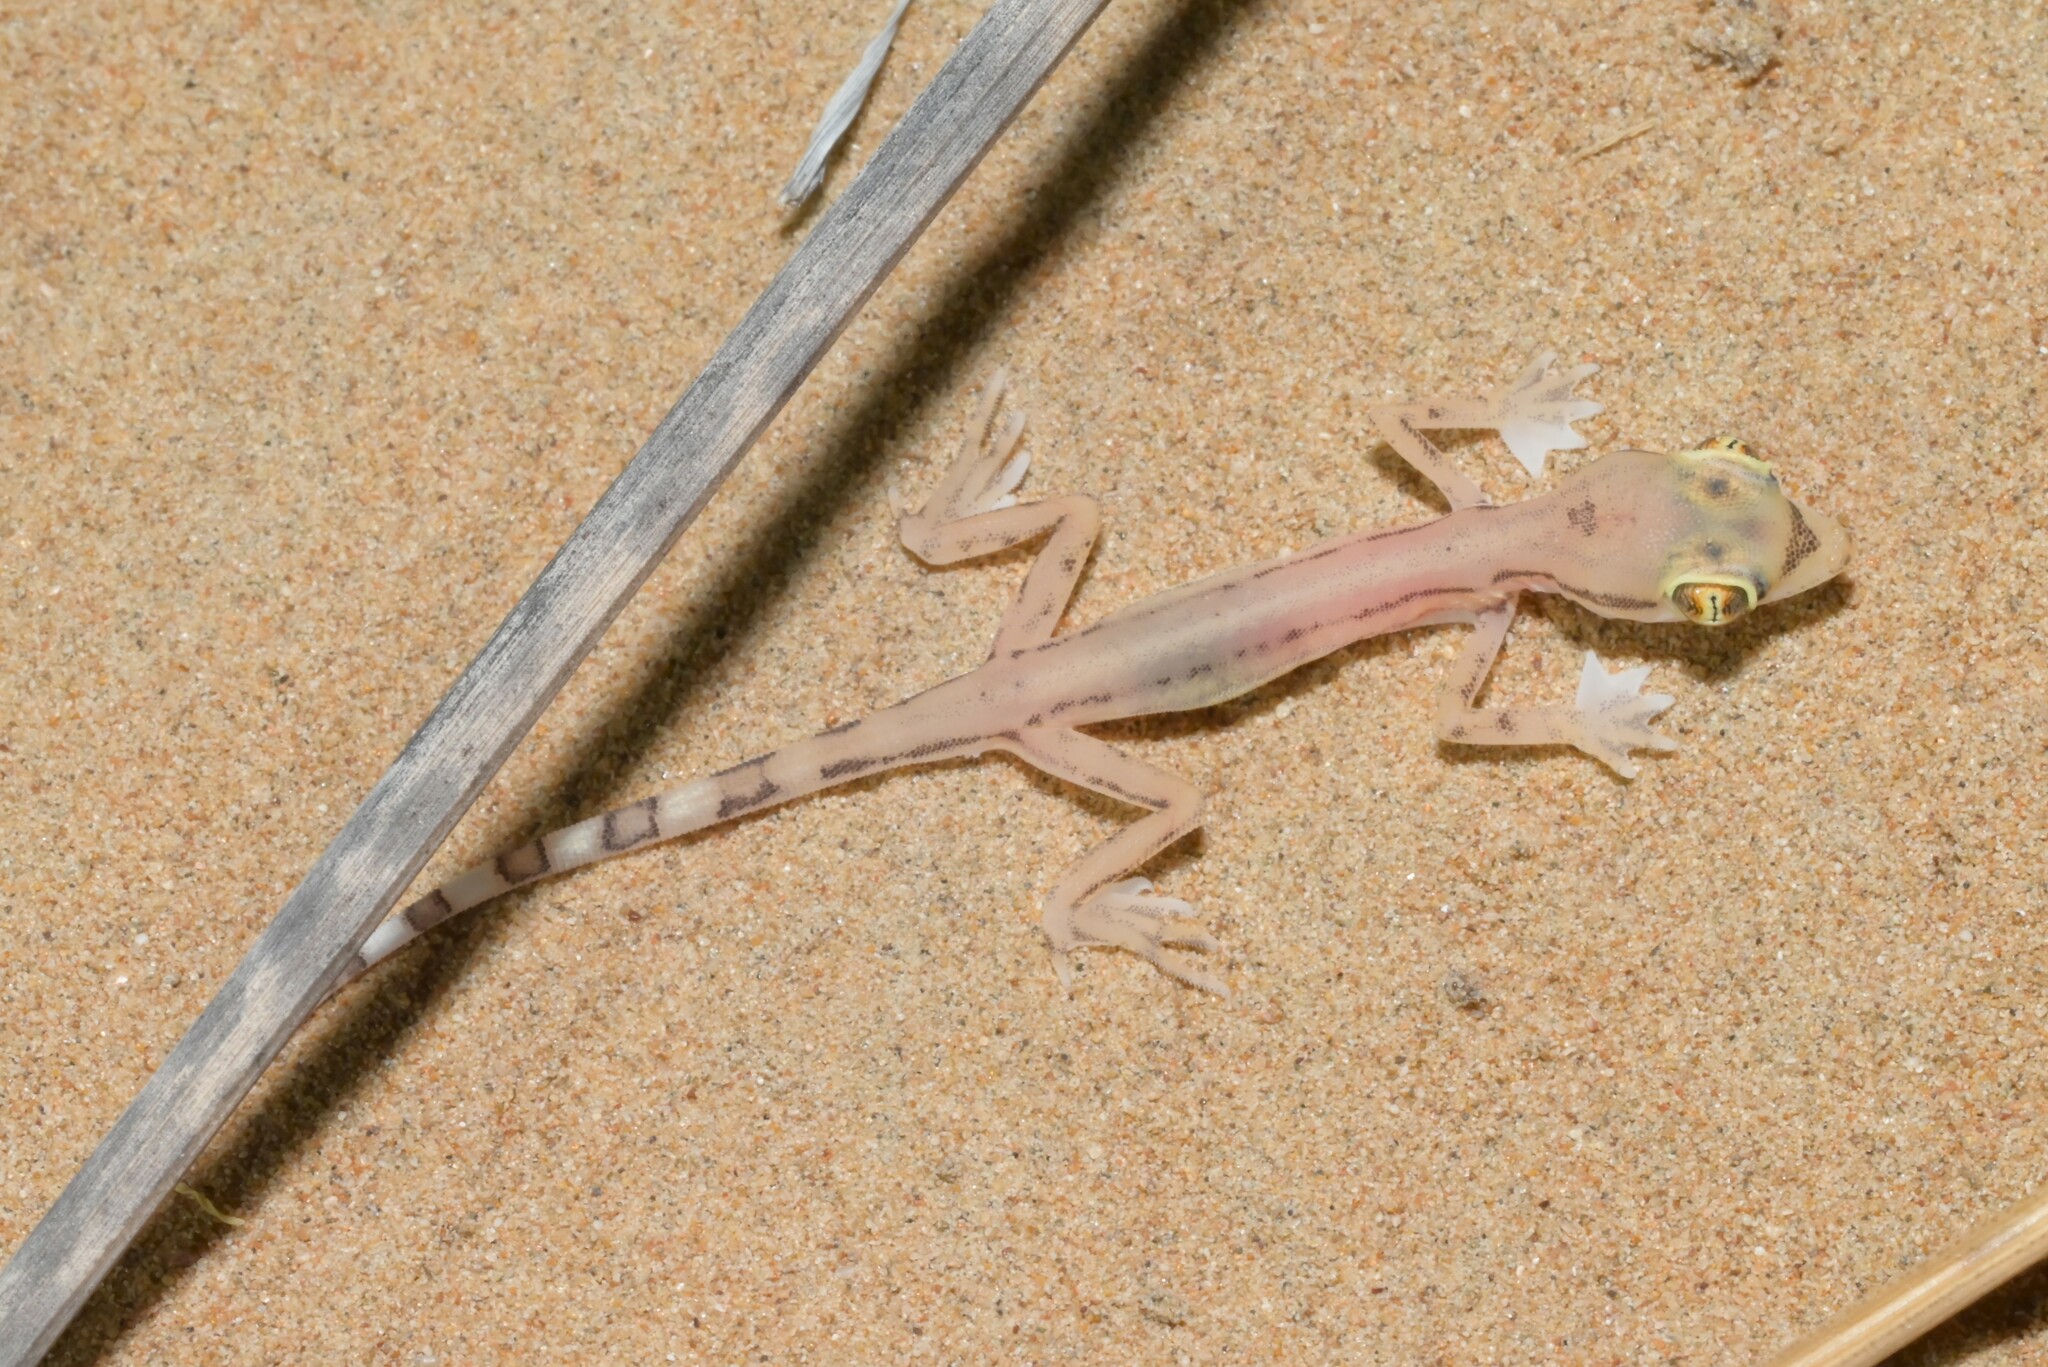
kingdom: Animalia
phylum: Chordata
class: Squamata
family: Gekkonidae
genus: Trigonodactylus
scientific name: Trigonodactylus arabicus
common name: Arabian sand gecko
